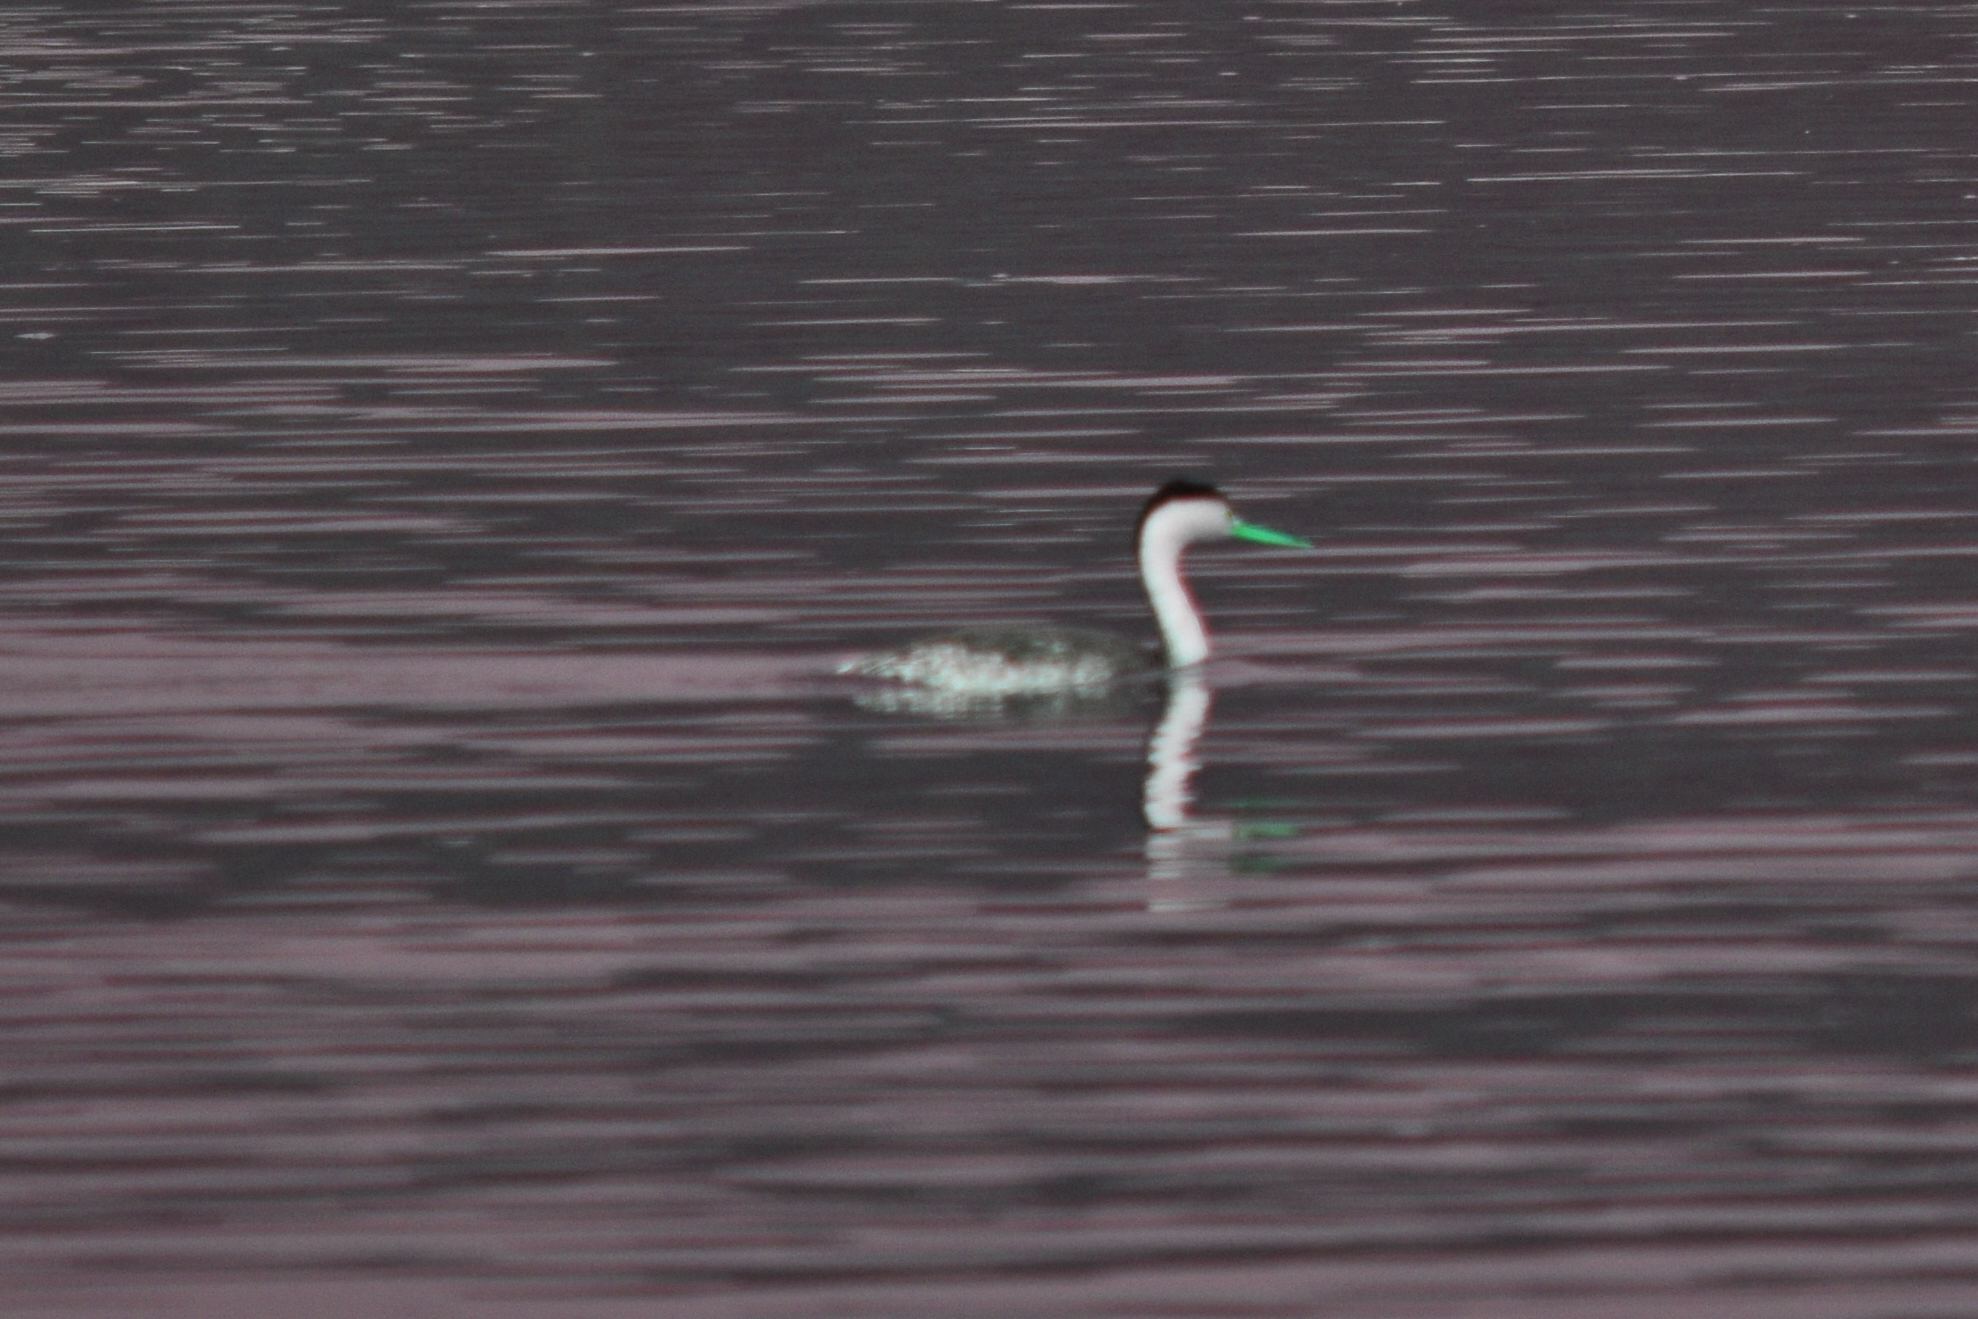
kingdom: Animalia
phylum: Chordata
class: Aves
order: Podicipediformes
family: Podicipedidae
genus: Aechmophorus
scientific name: Aechmophorus clarkii
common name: Clark's grebe
